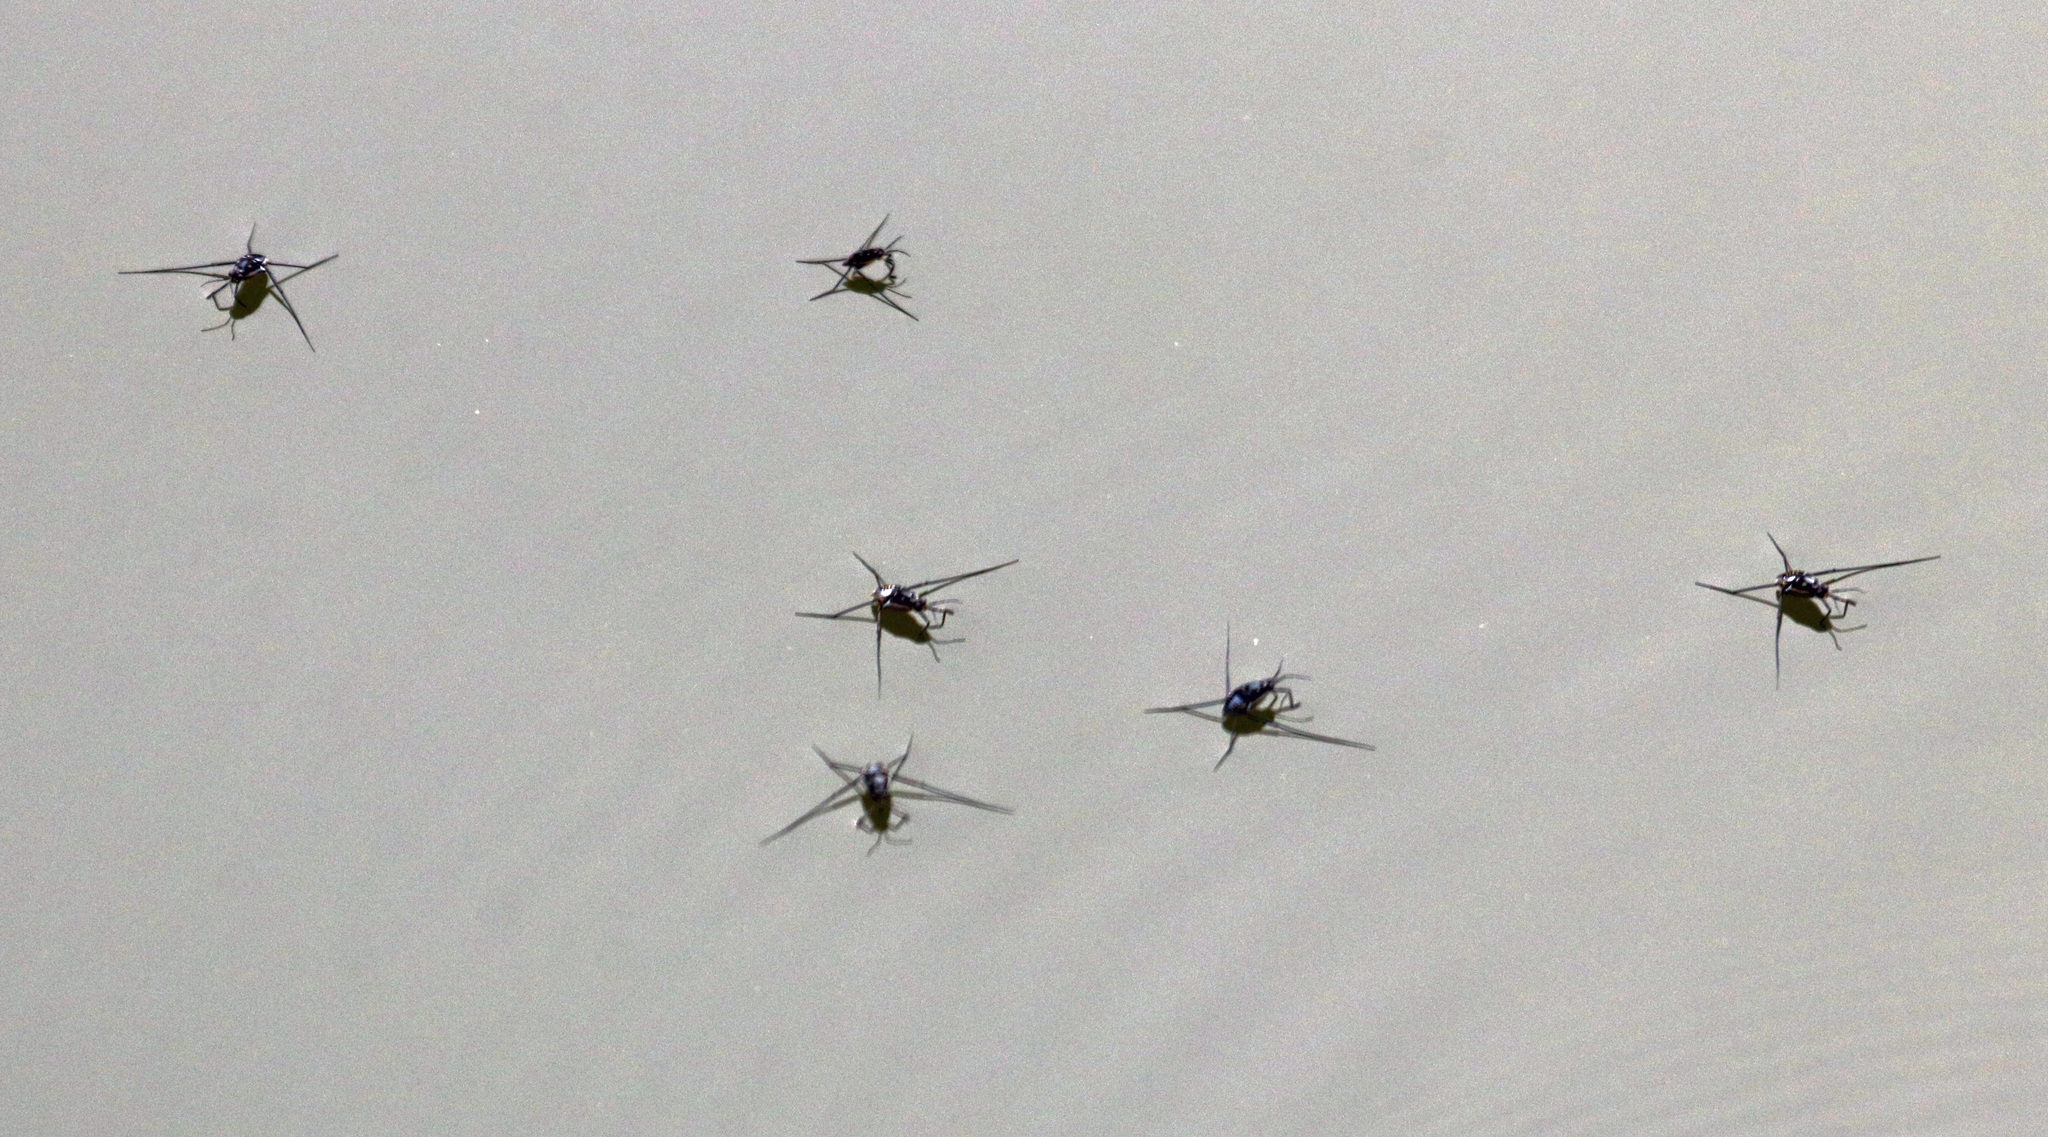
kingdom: Animalia
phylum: Arthropoda
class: Insecta
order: Hemiptera
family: Gerridae
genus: Trepobates
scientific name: Trepobates subnitidus
